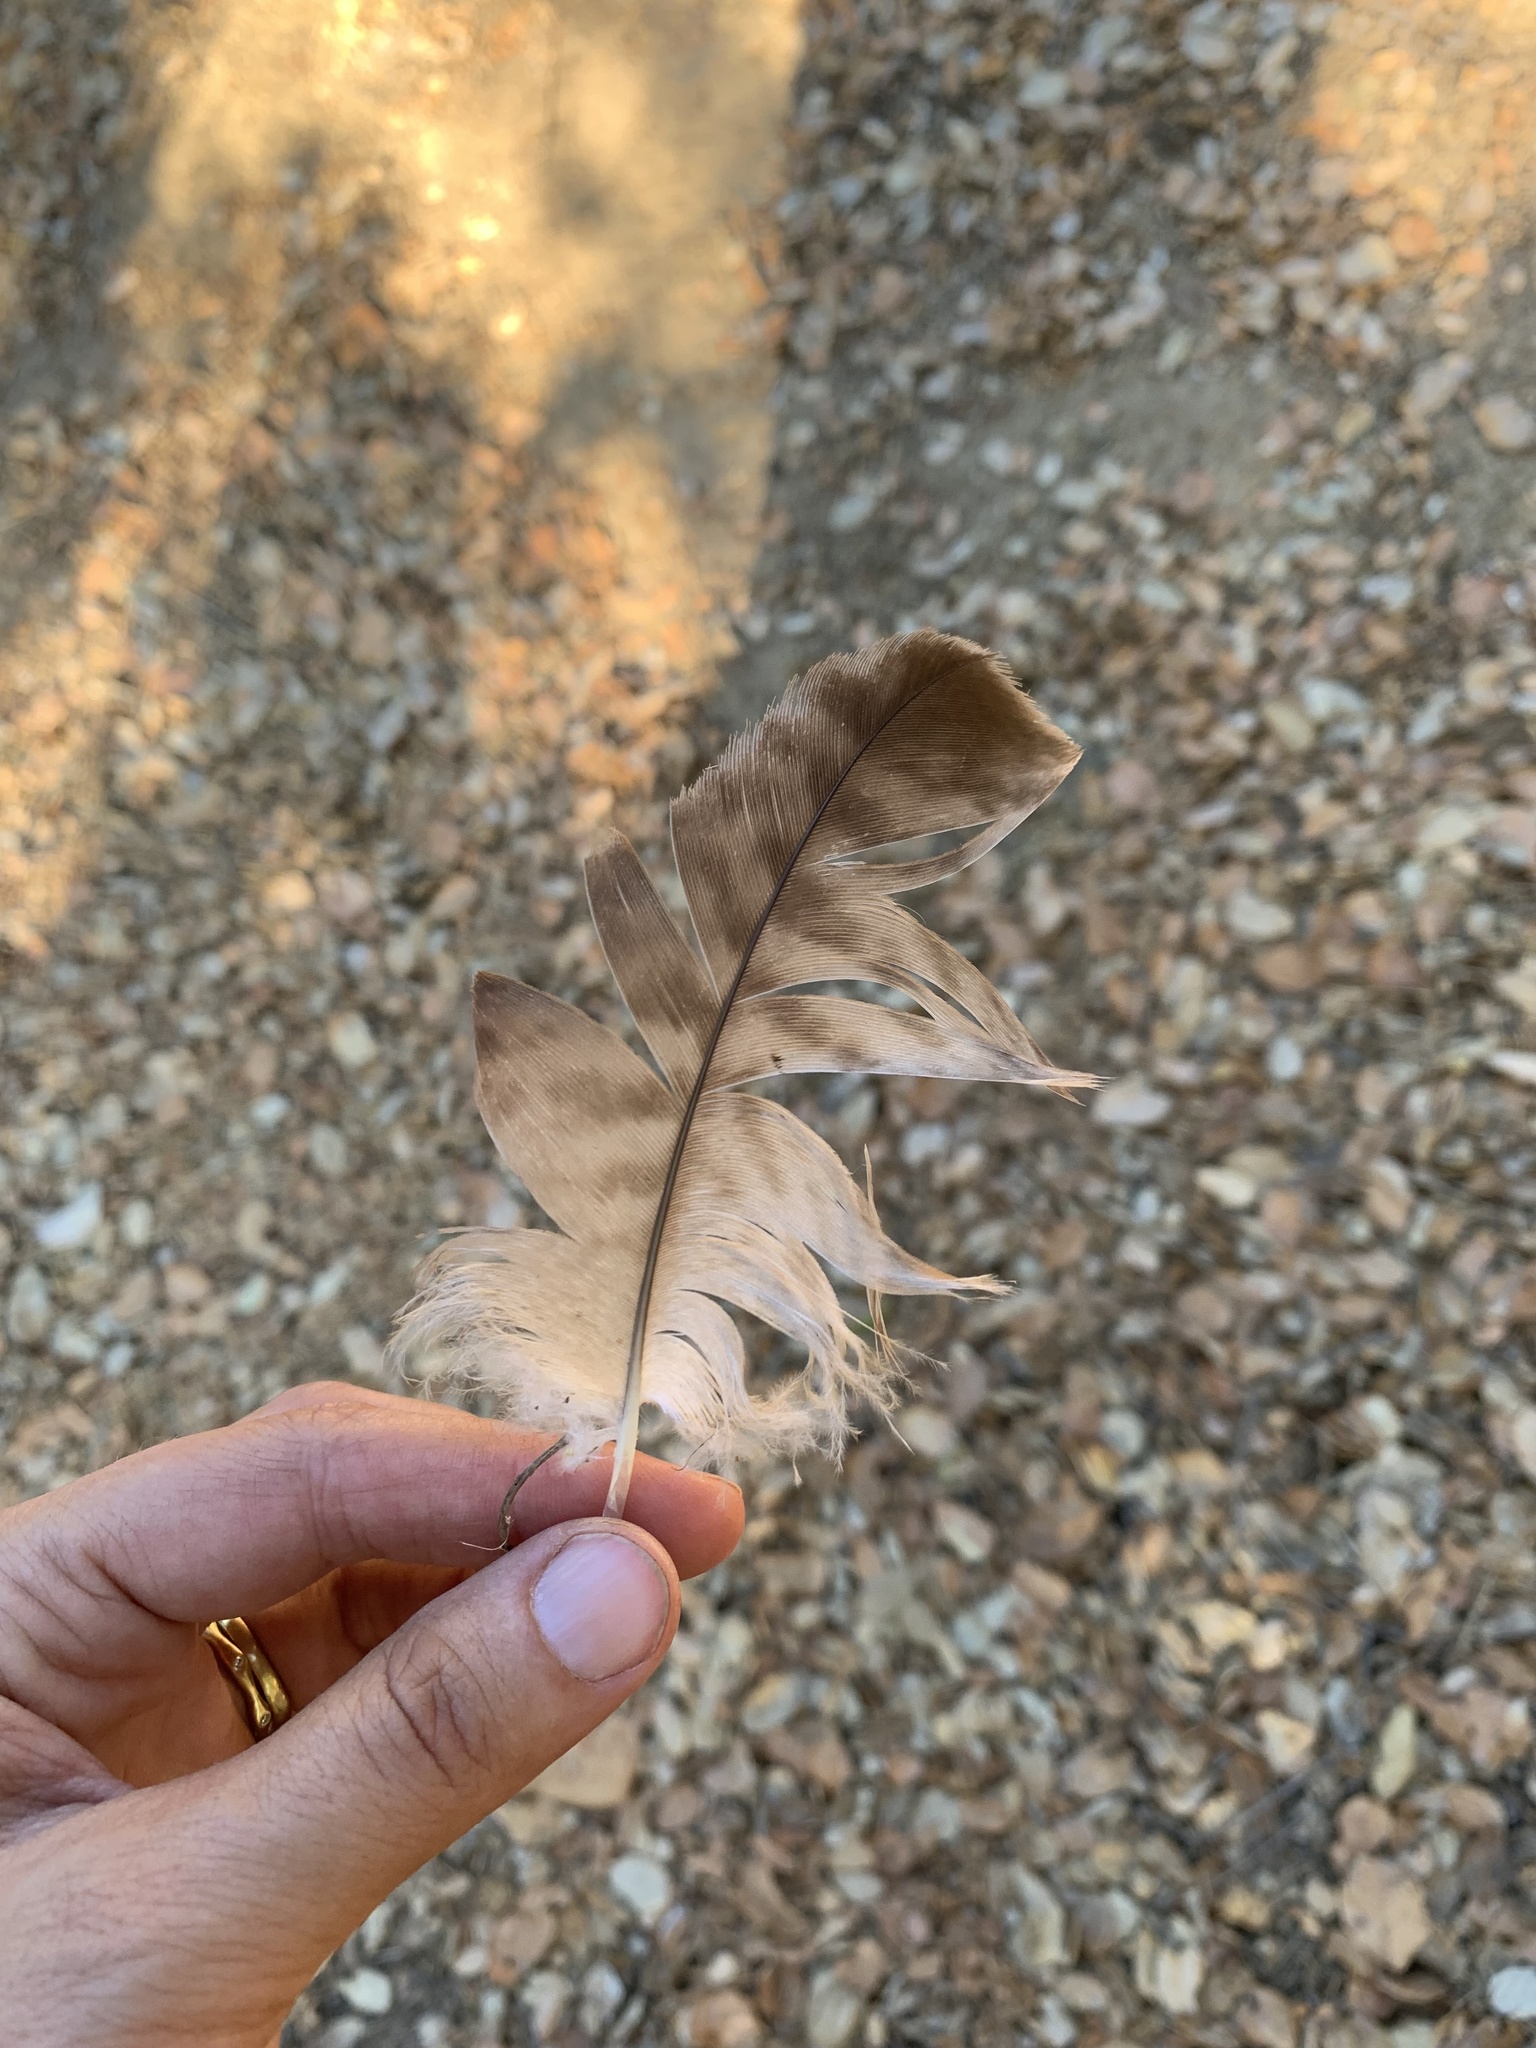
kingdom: Animalia
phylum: Chordata
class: Aves
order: Accipitriformes
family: Accipitridae
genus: Buteo
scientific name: Buteo jamaicensis
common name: Red-tailed hawk
